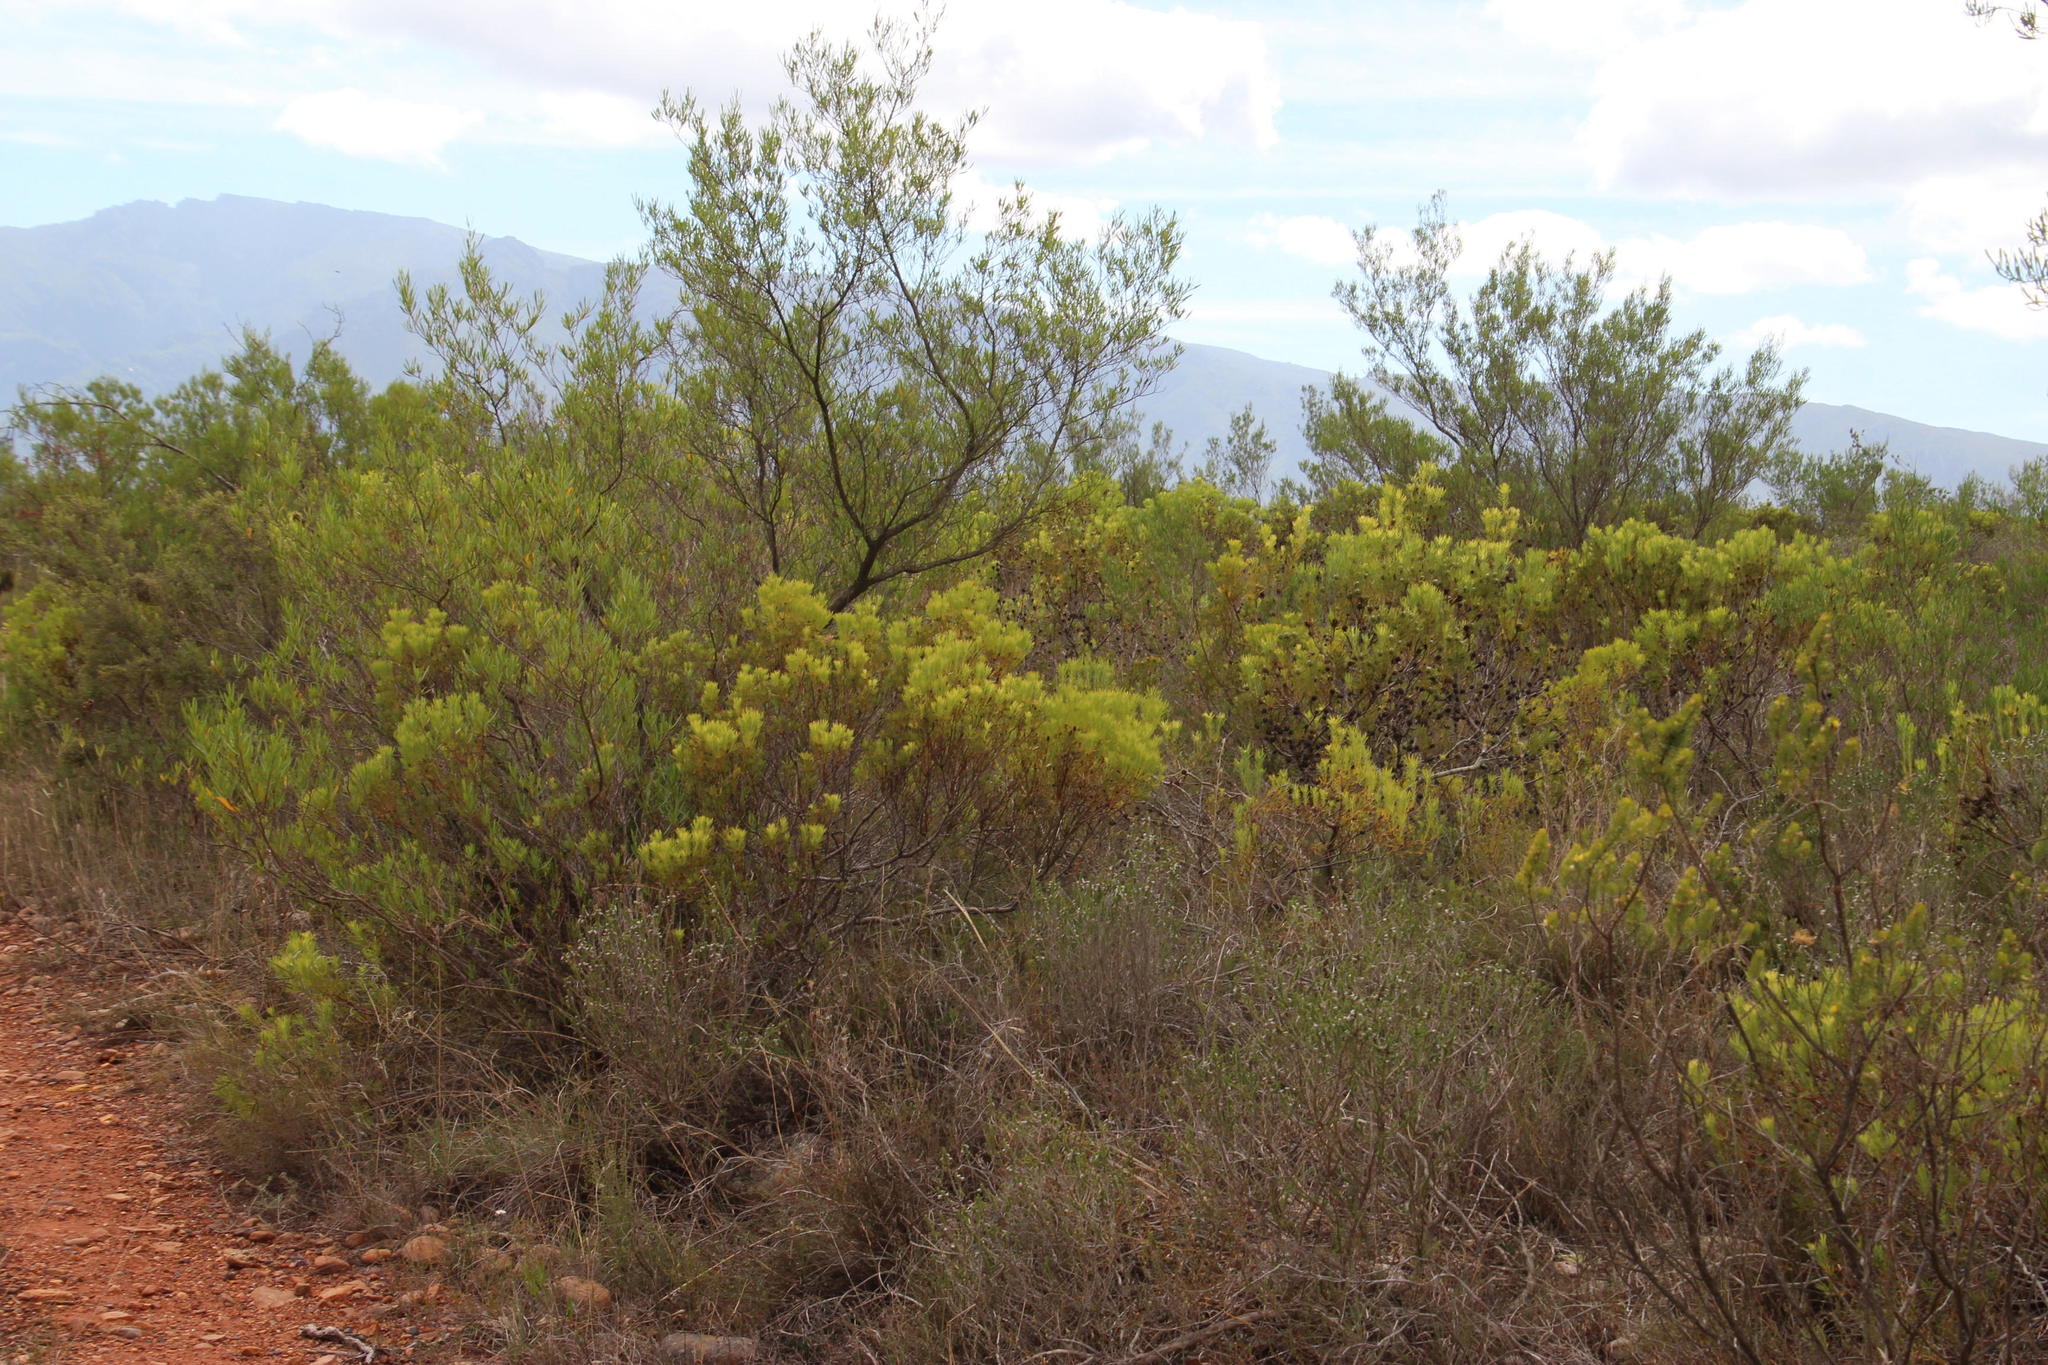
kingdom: Plantae
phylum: Tracheophyta
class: Magnoliopsida
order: Proteales
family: Proteaceae
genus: Leucadendron
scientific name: Leucadendron salignum
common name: Common sunshine conebush
